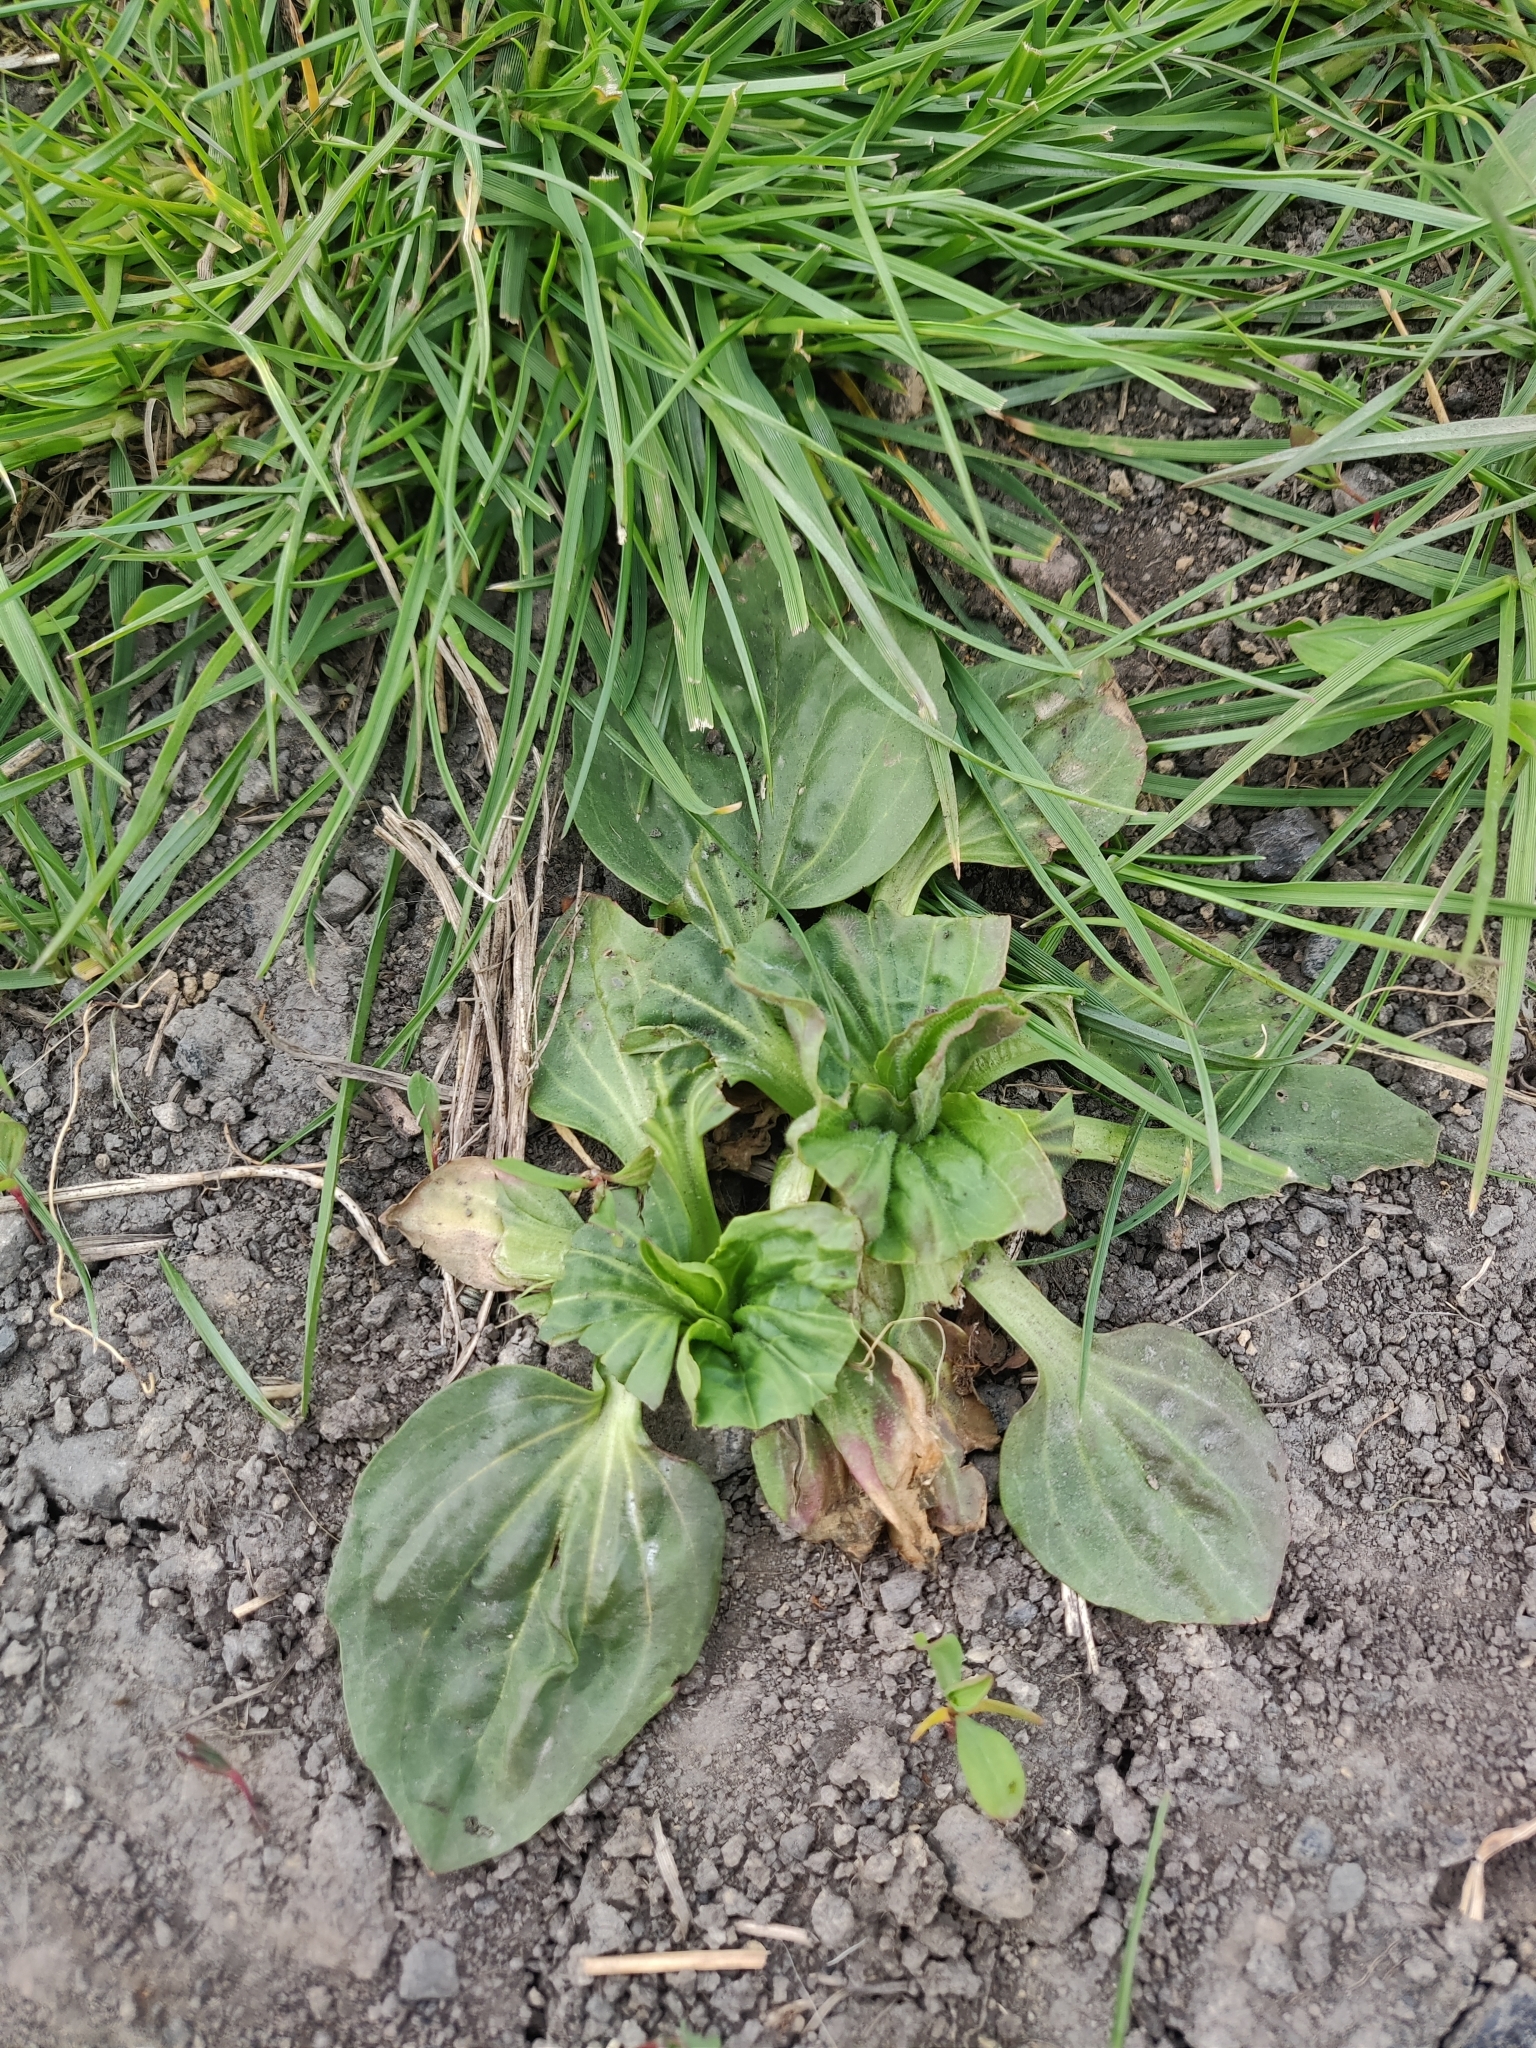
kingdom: Plantae
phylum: Tracheophyta
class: Magnoliopsida
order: Lamiales
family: Plantaginaceae
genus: Plantago
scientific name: Plantago major
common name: Common plantain
